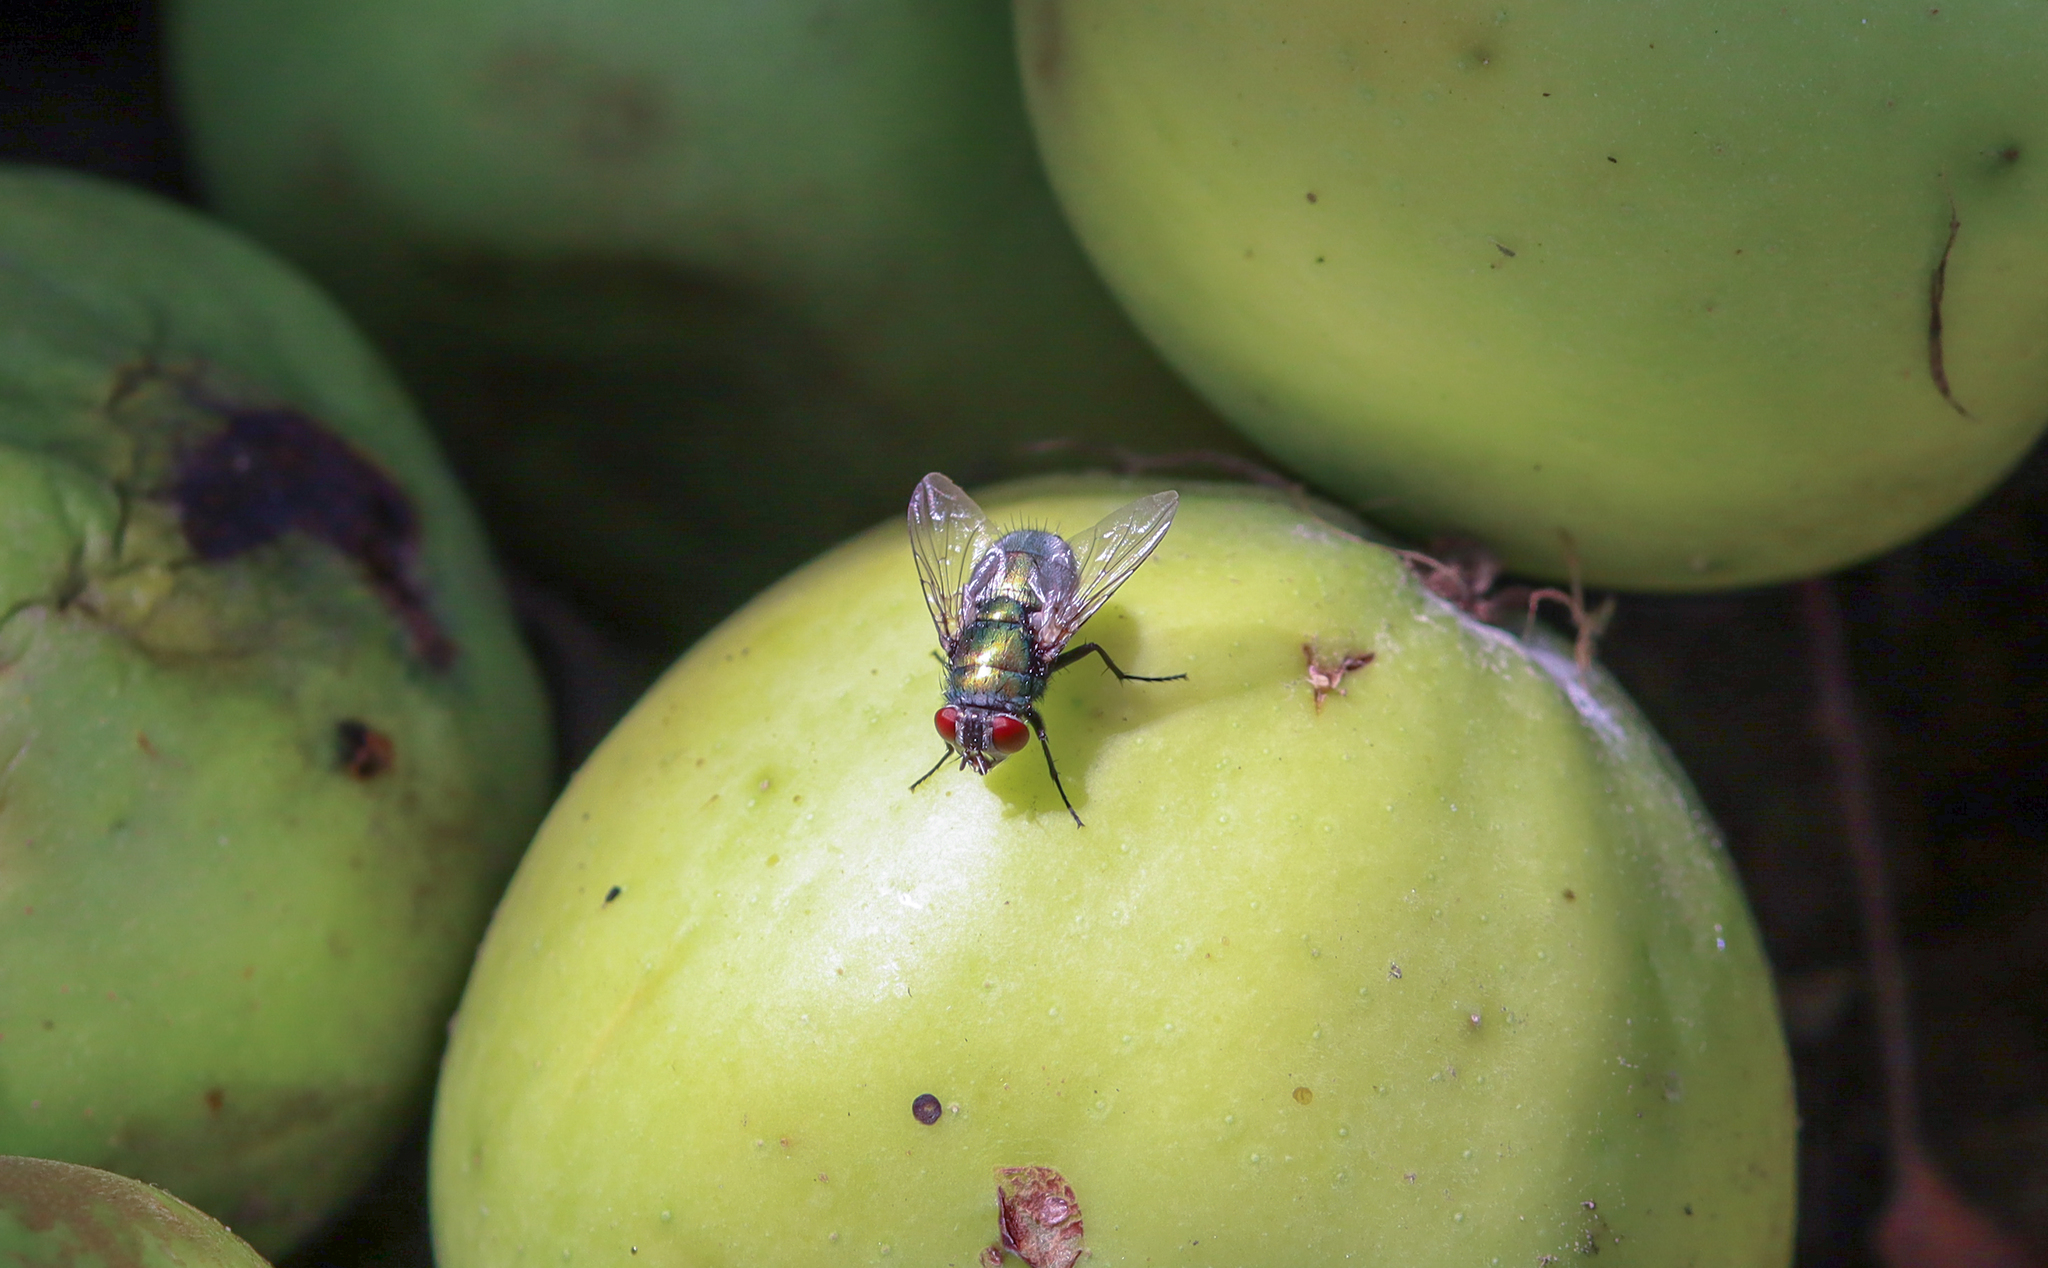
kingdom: Animalia
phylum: Arthropoda
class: Insecta
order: Diptera
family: Calliphoridae
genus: Lucilia
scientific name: Lucilia sericata
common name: Blow fly
